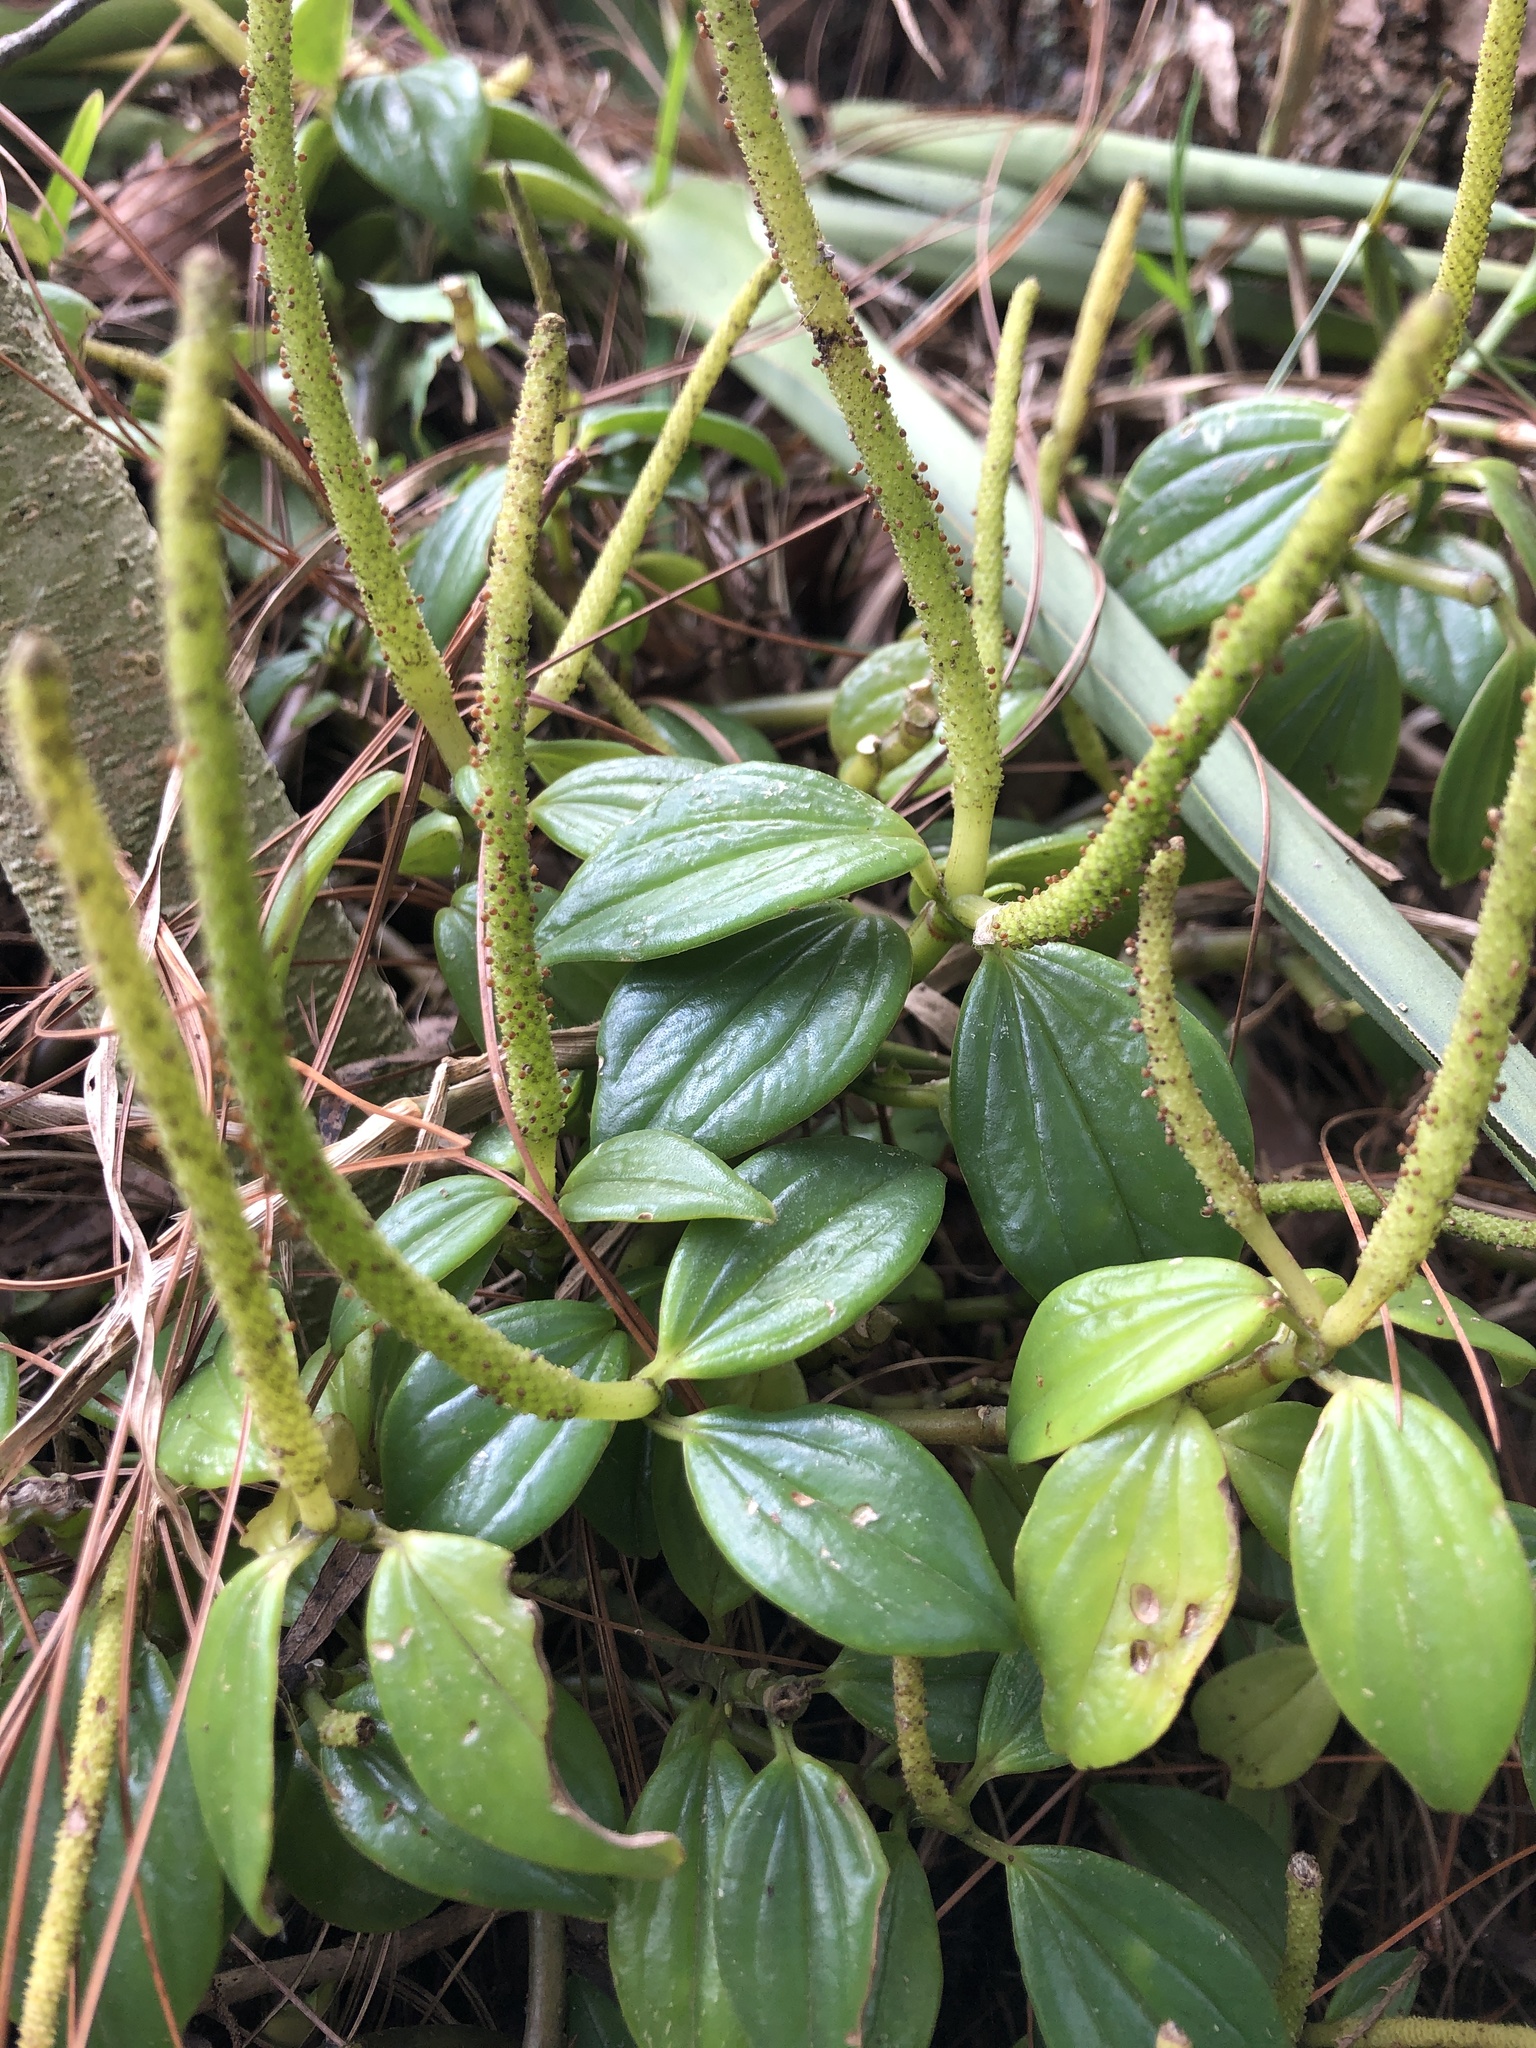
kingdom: Plantae
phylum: Tracheophyta
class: Magnoliopsida
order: Piperales
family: Piperaceae
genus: Peperomia
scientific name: Peperomia san-joseana
